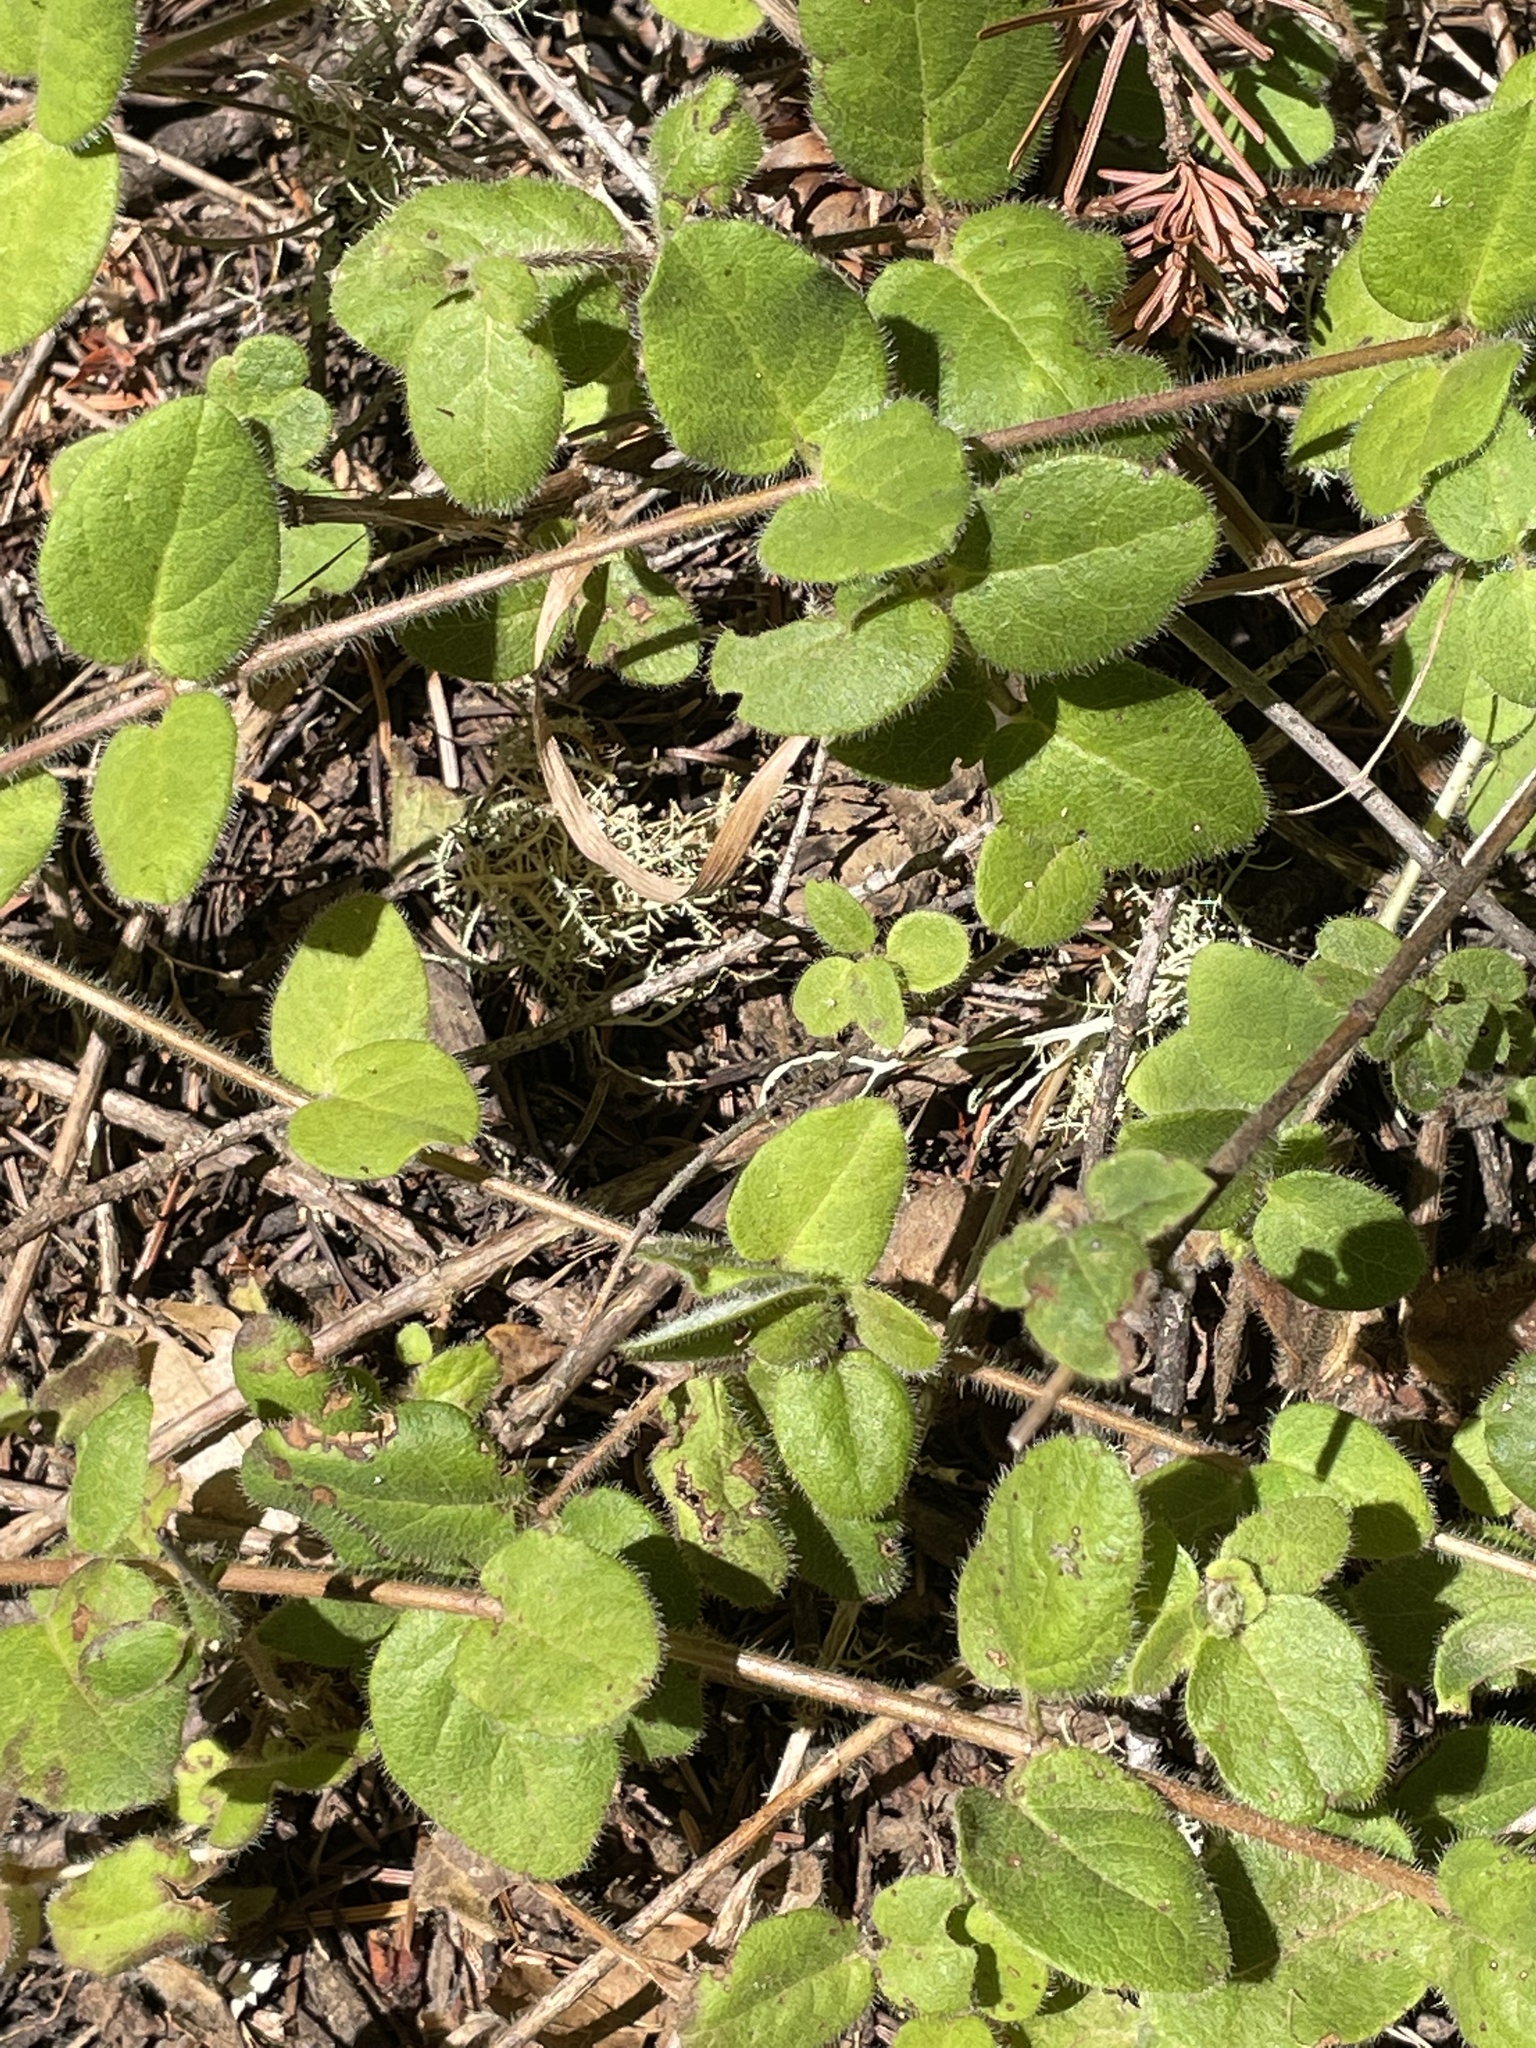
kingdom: Plantae
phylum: Tracheophyta
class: Magnoliopsida
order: Dipsacales
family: Caprifoliaceae
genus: Lonicera
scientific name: Lonicera hispidula
